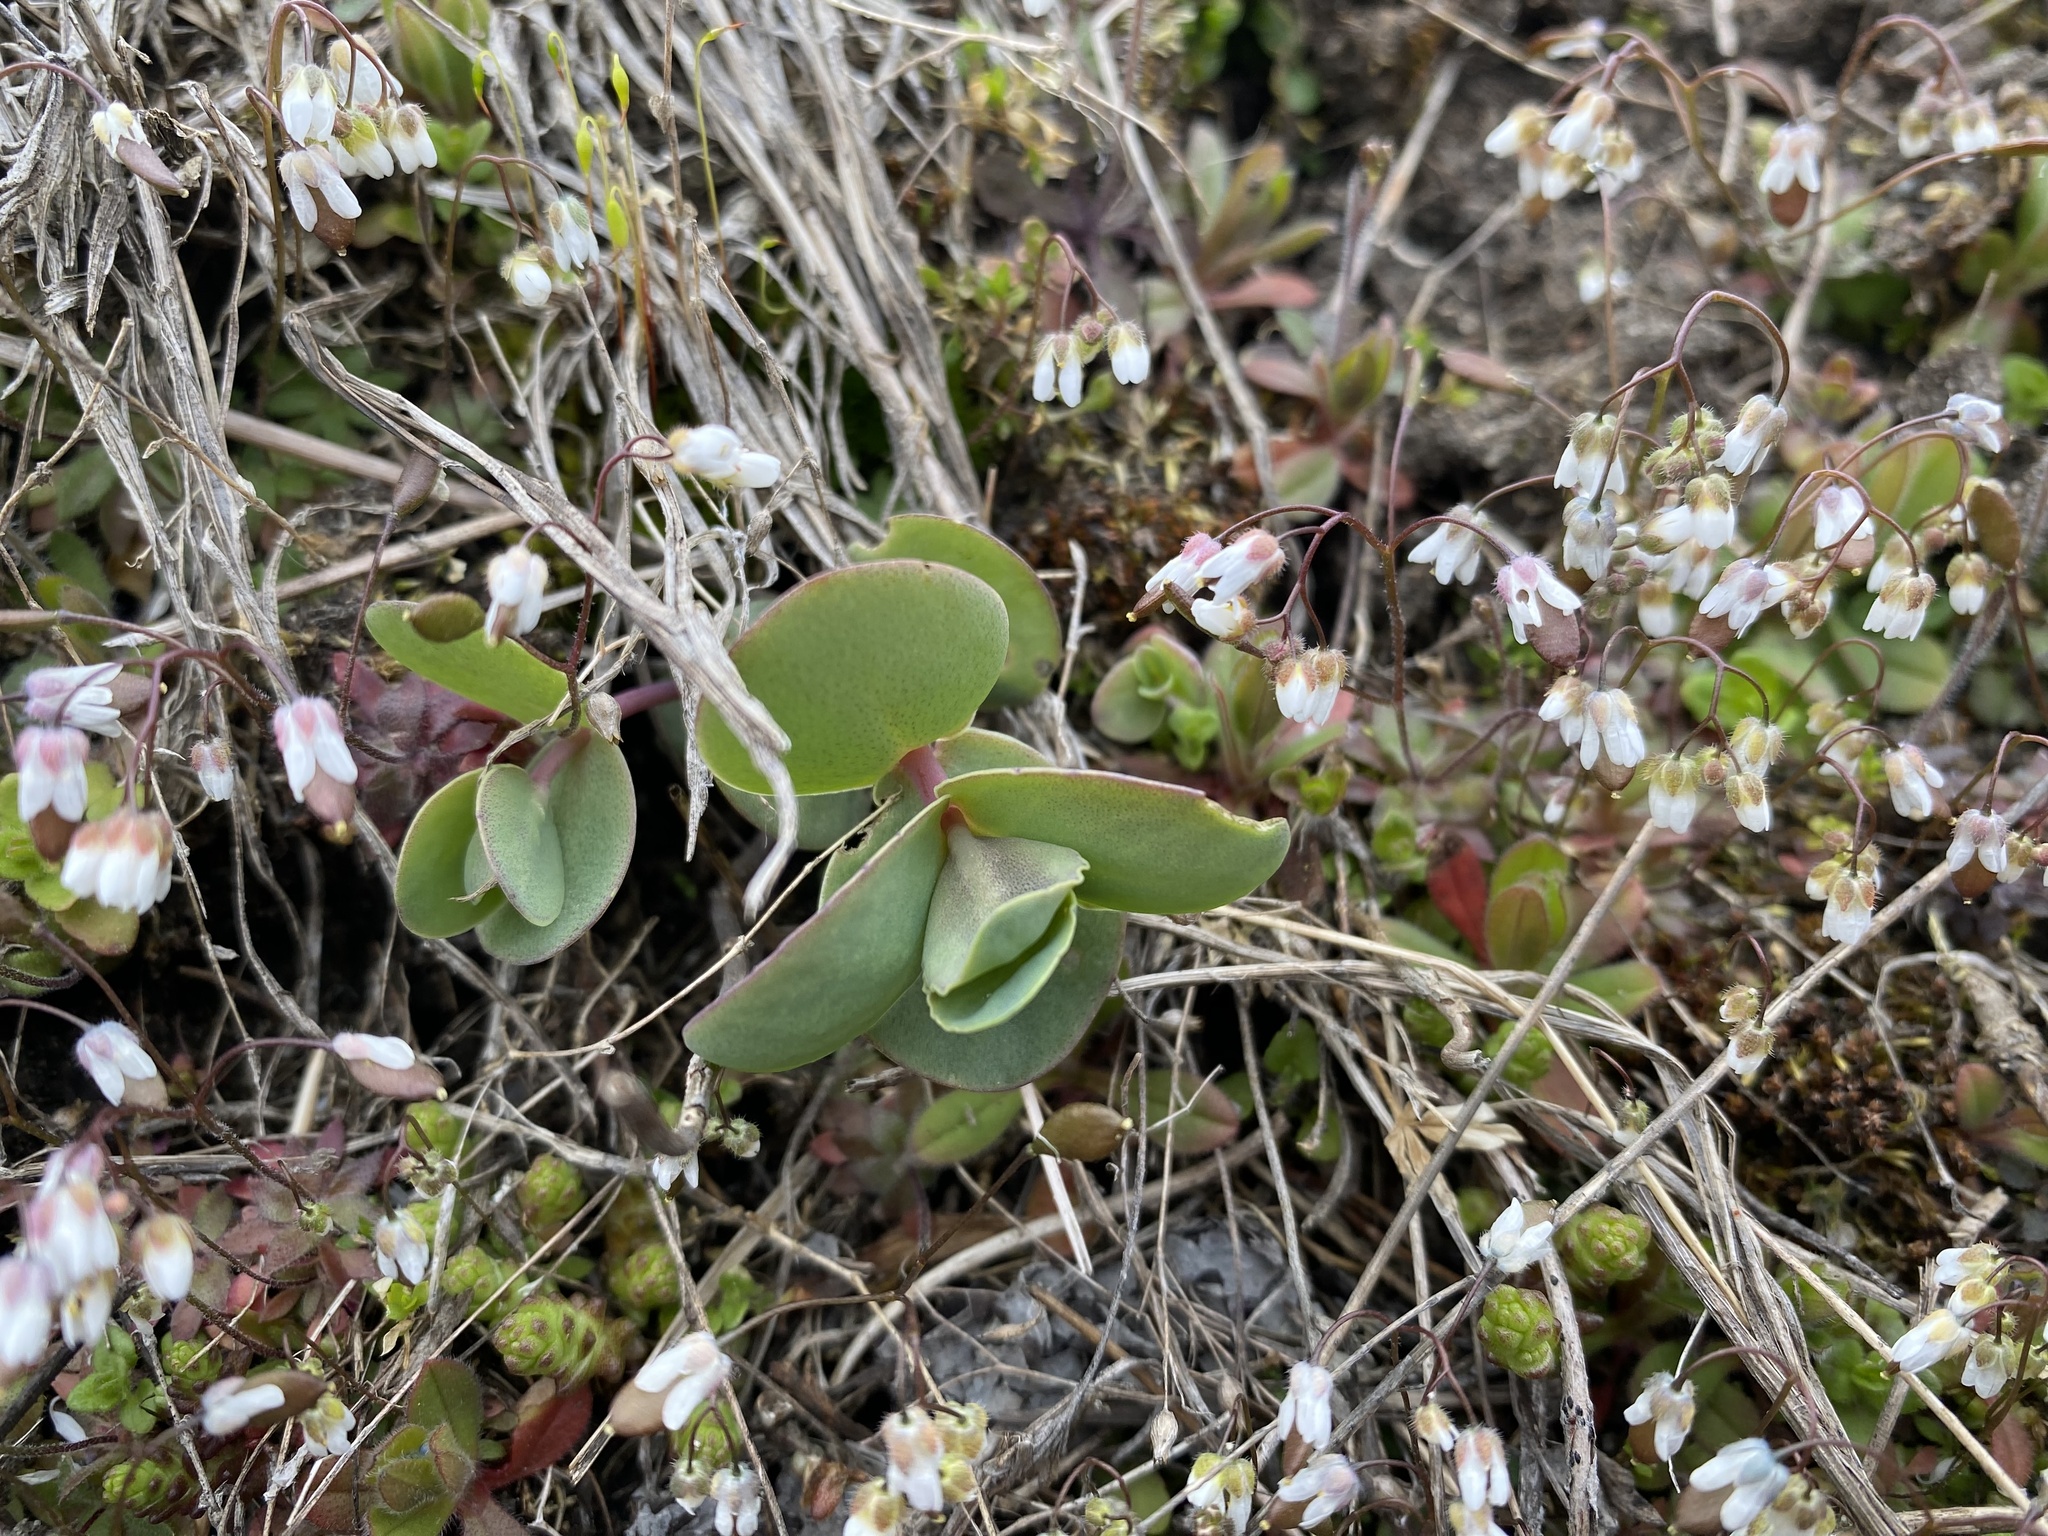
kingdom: Plantae
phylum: Tracheophyta
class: Magnoliopsida
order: Saxifragales
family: Crassulaceae
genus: Hylotelephium
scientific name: Hylotelephium maximum
